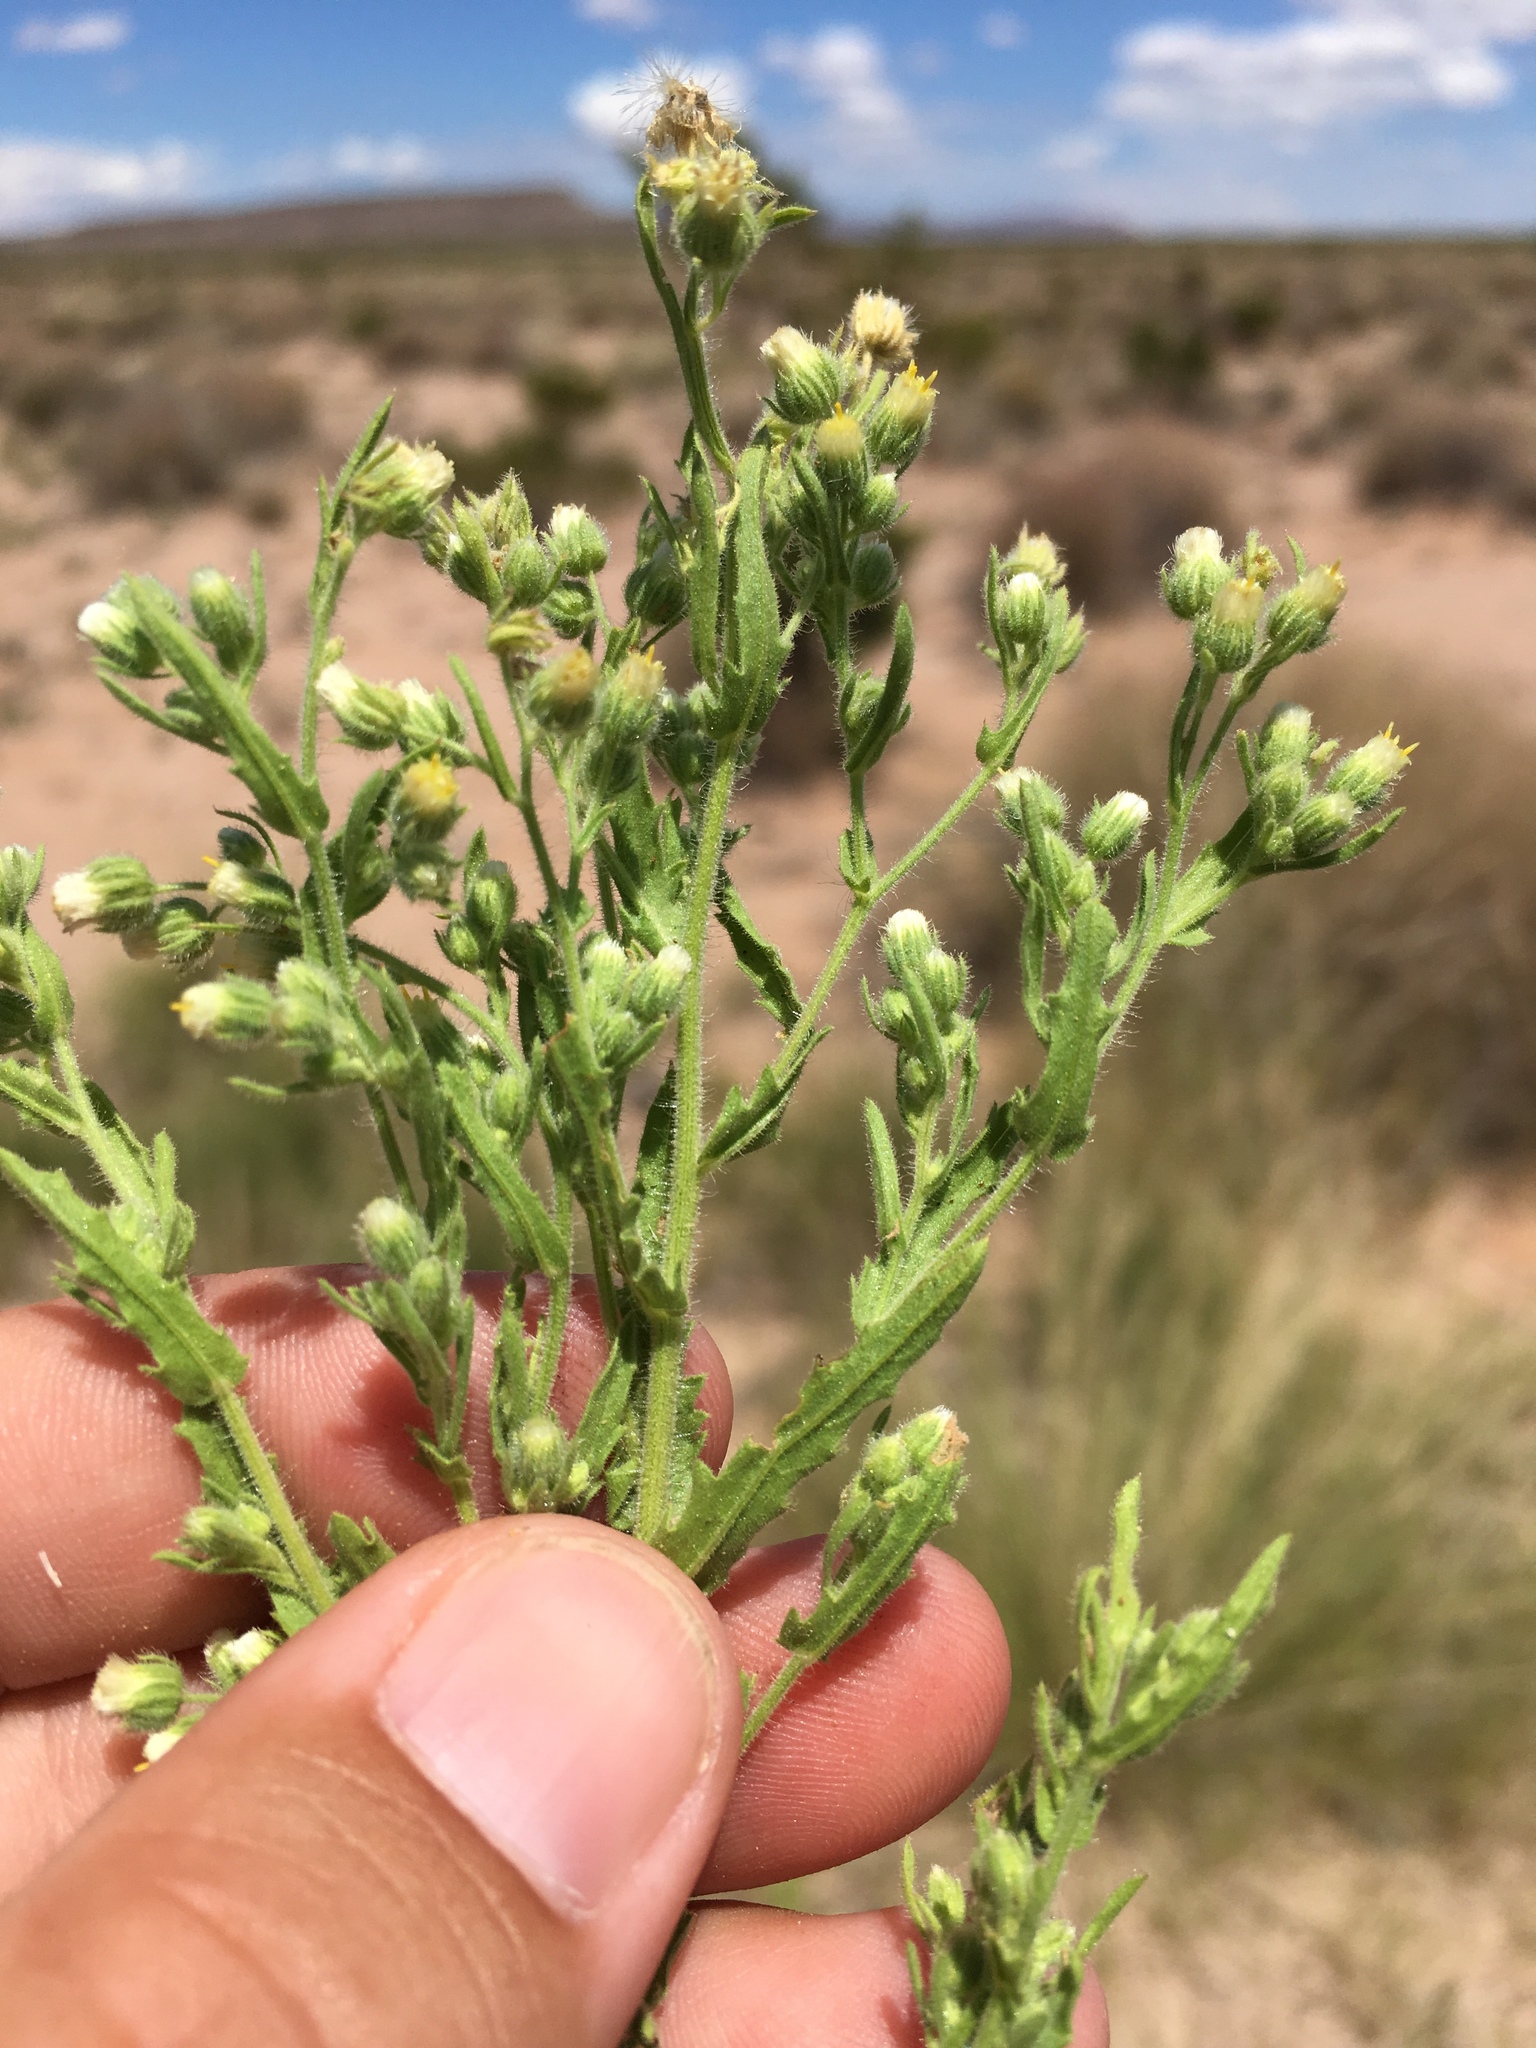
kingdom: Plantae
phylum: Tracheophyta
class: Magnoliopsida
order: Asterales
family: Asteraceae
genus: Laennecia
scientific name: Laennecia coulteri
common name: Coulter's woolwort
